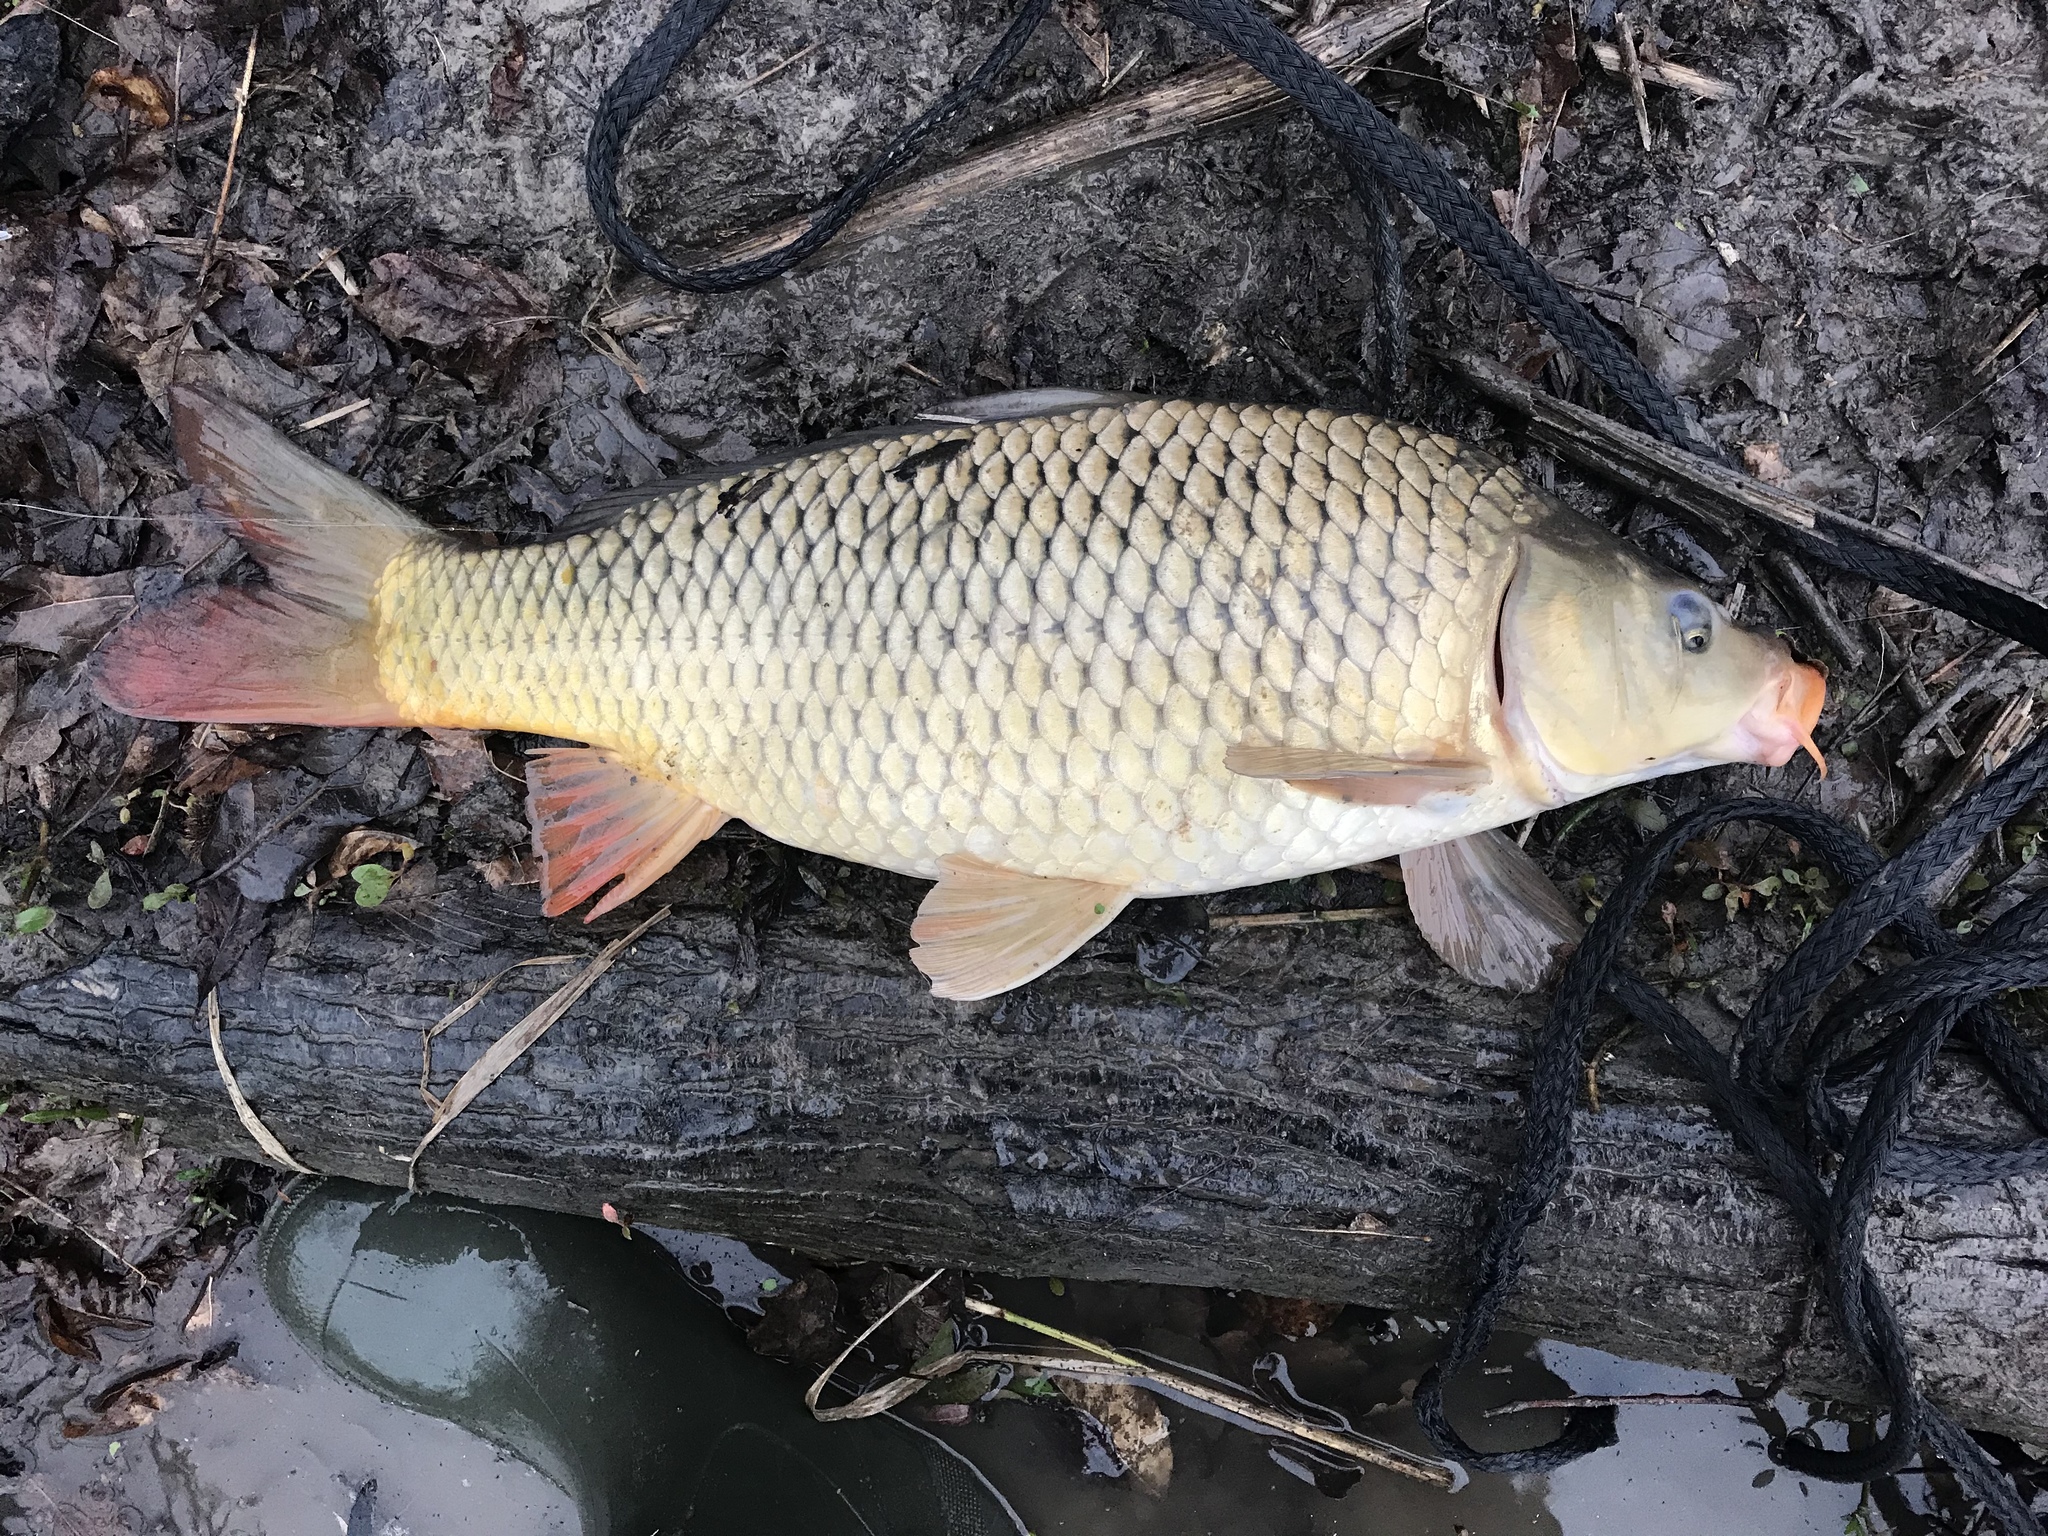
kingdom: Animalia
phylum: Chordata
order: Cypriniformes
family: Cyprinidae
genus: Cyprinus
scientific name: Cyprinus carpio
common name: Common carp
